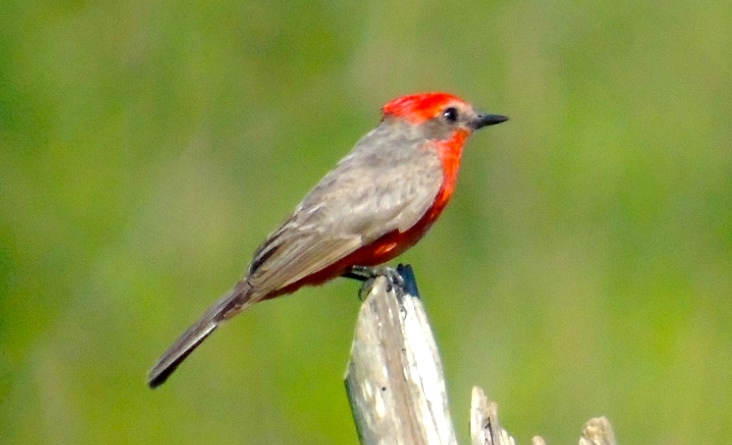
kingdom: Animalia
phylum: Chordata
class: Aves
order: Passeriformes
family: Tyrannidae
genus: Pyrocephalus
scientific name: Pyrocephalus rubinus
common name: Vermilion flycatcher
